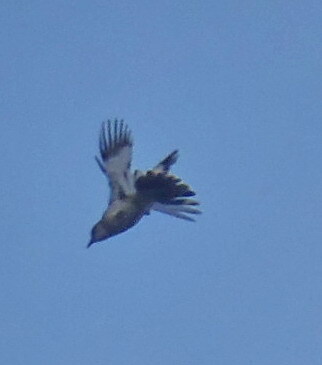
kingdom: Animalia
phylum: Chordata
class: Aves
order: Passeriformes
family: Mimidae
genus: Mimus
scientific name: Mimus polyglottos
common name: Northern mockingbird
